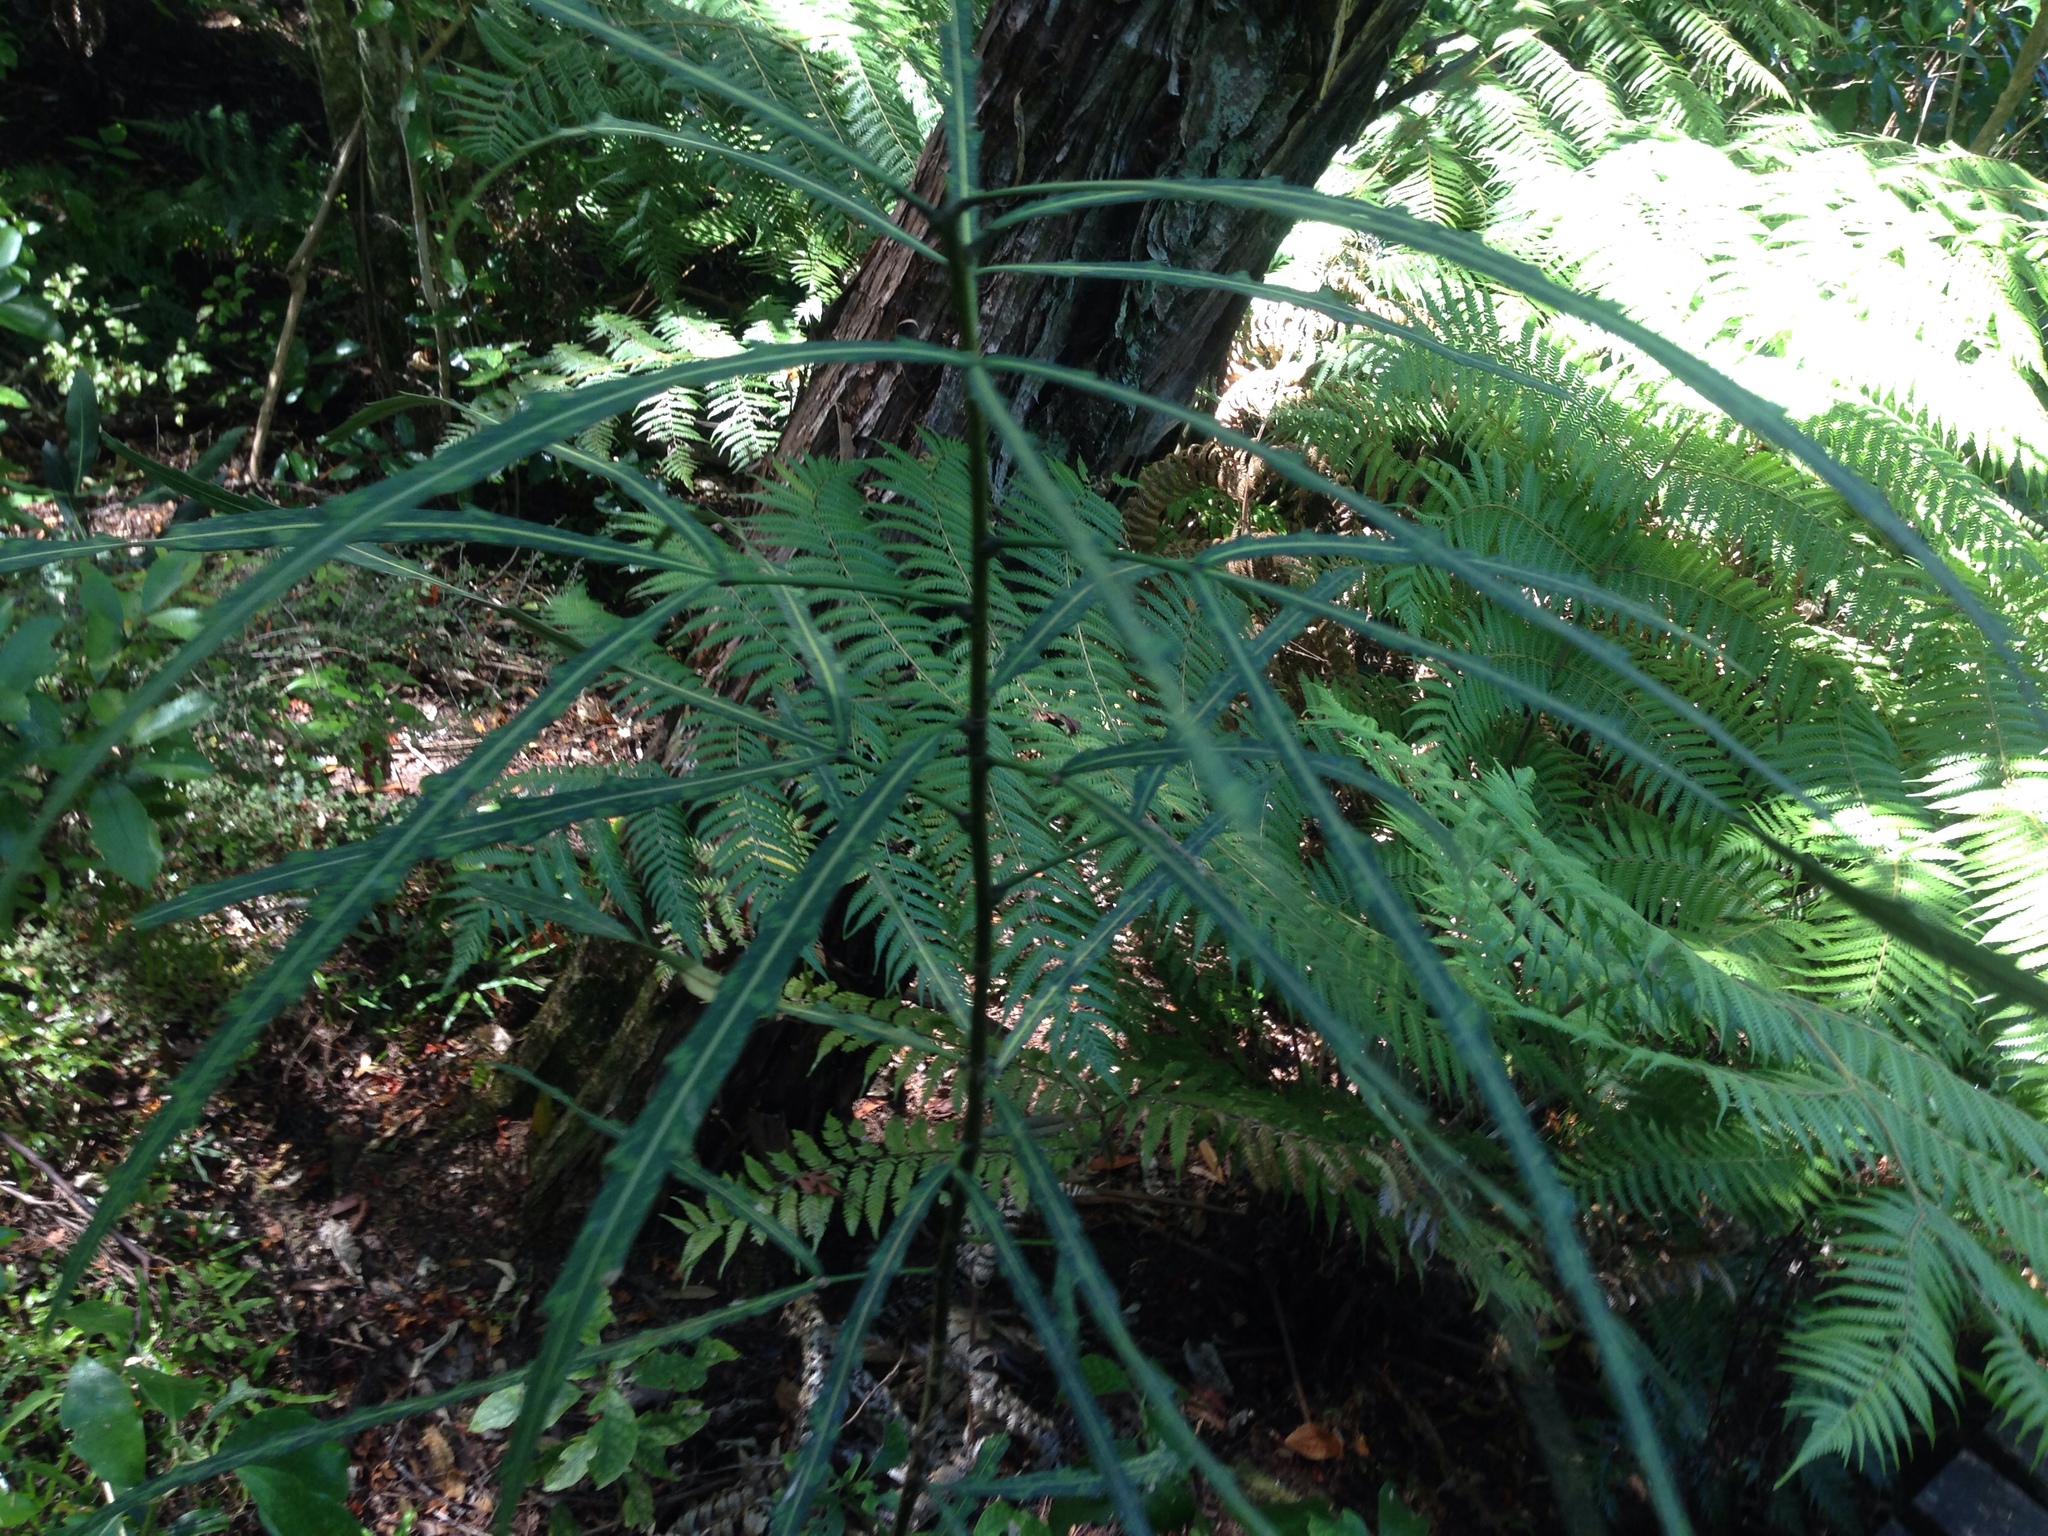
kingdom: Plantae
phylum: Tracheophyta
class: Magnoliopsida
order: Apiales
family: Araliaceae
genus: Pseudopanax
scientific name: Pseudopanax
